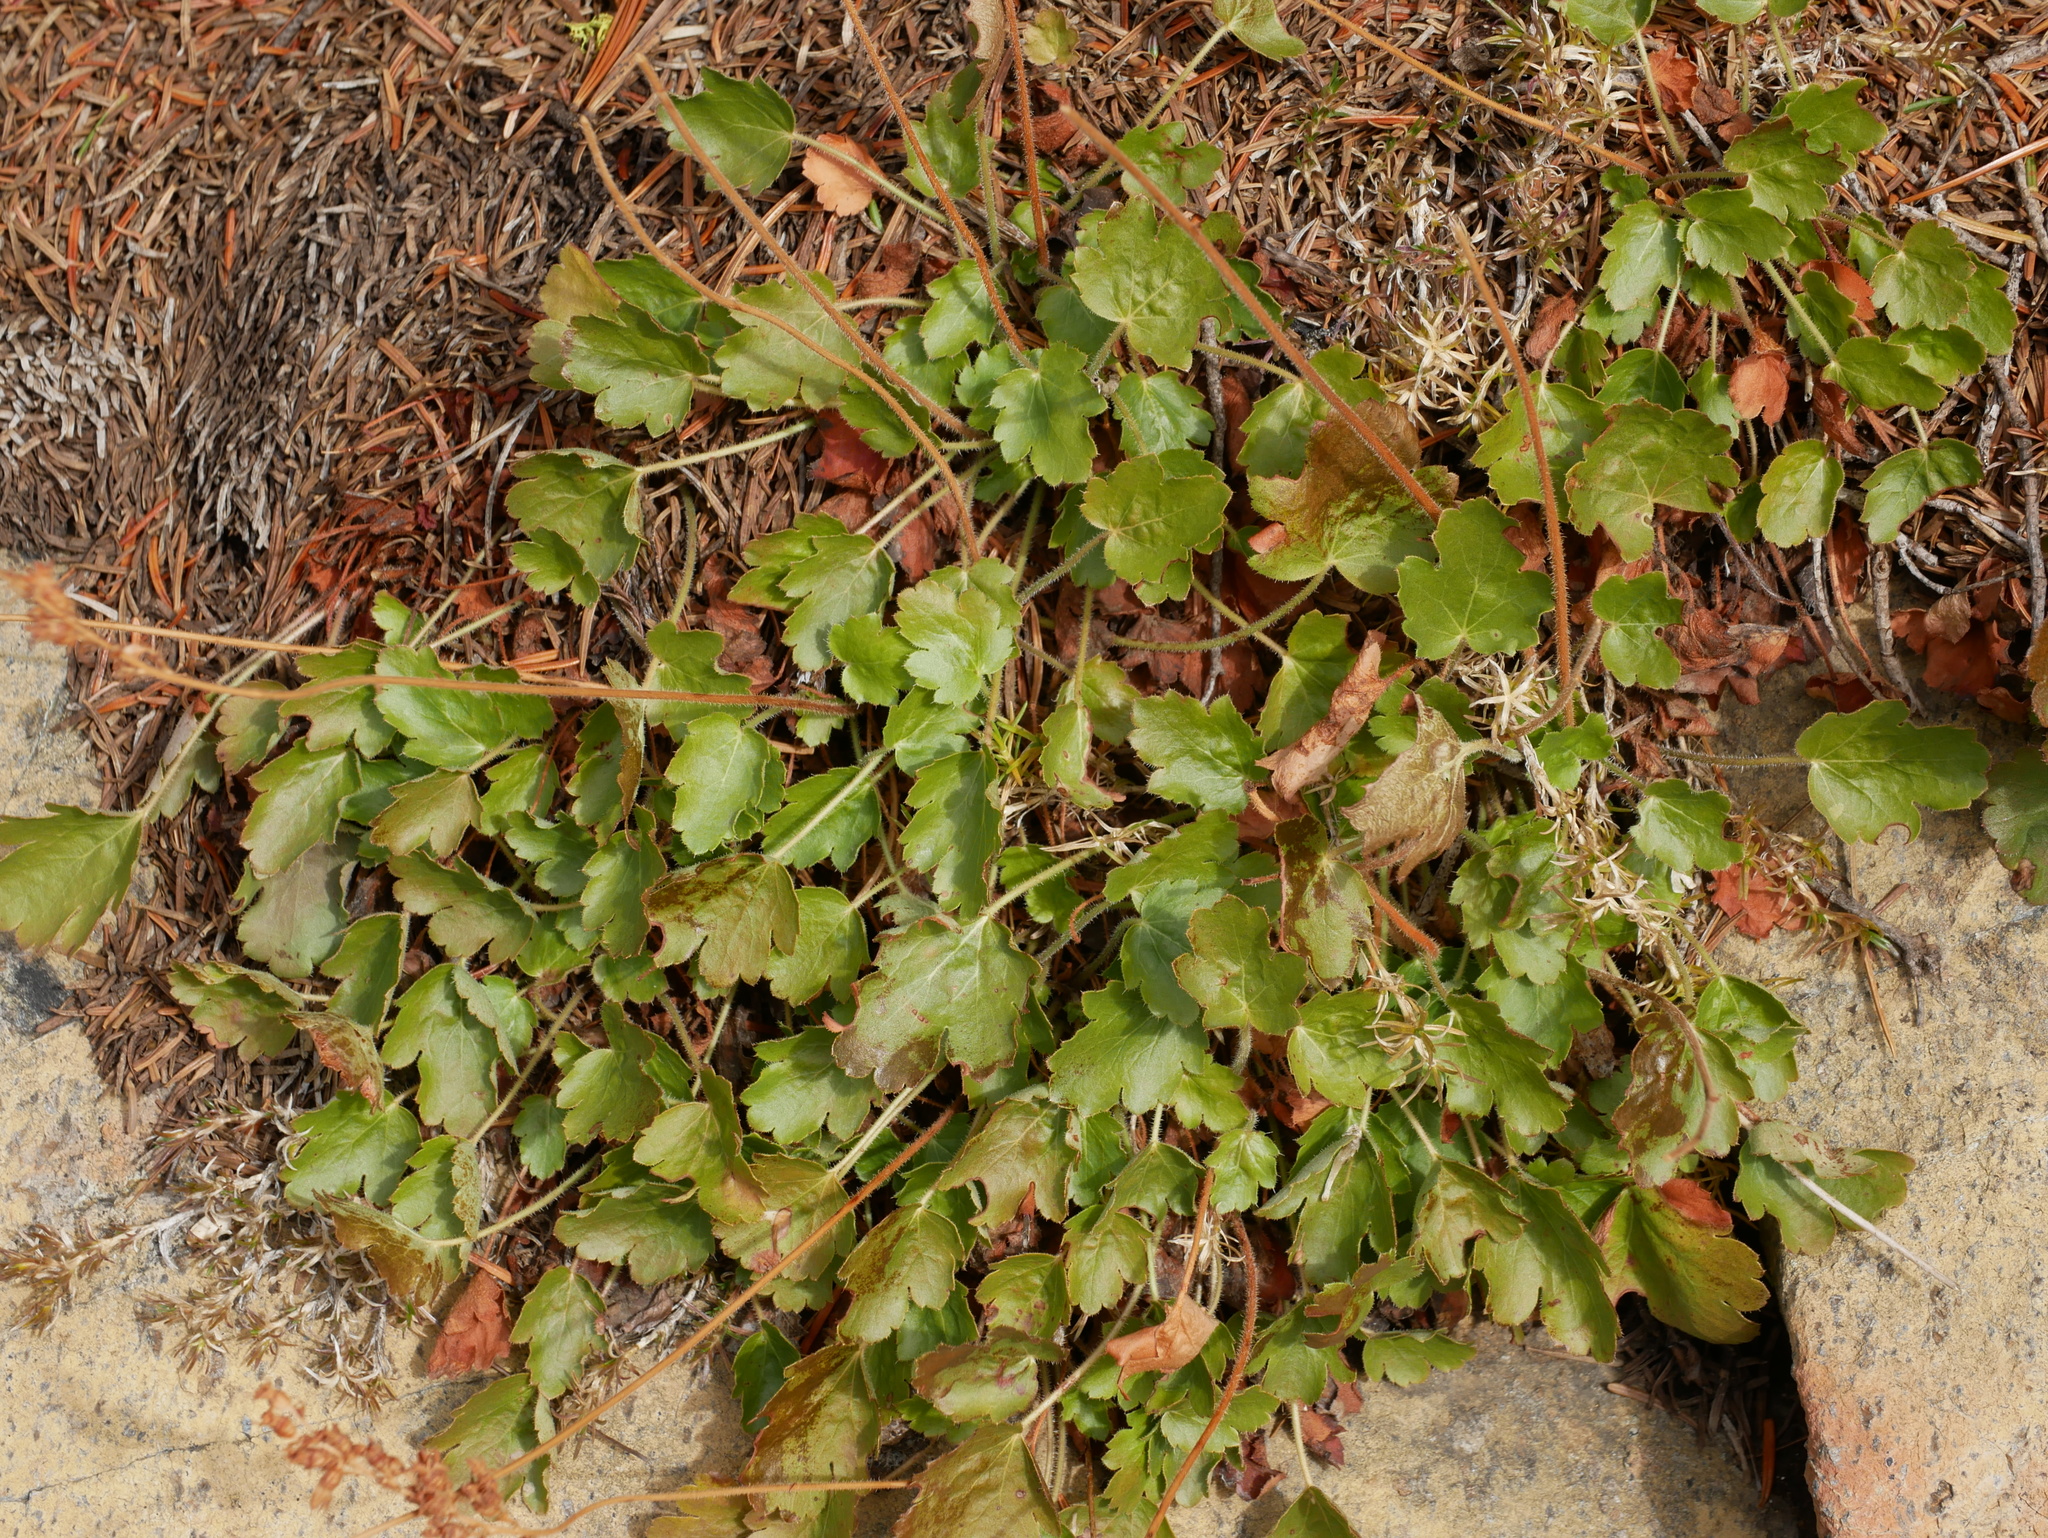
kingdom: Plantae
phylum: Tracheophyta
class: Magnoliopsida
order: Saxifragales
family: Saxifragaceae
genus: Heuchera
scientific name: Heuchera cylindrica
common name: Mat alumroot
